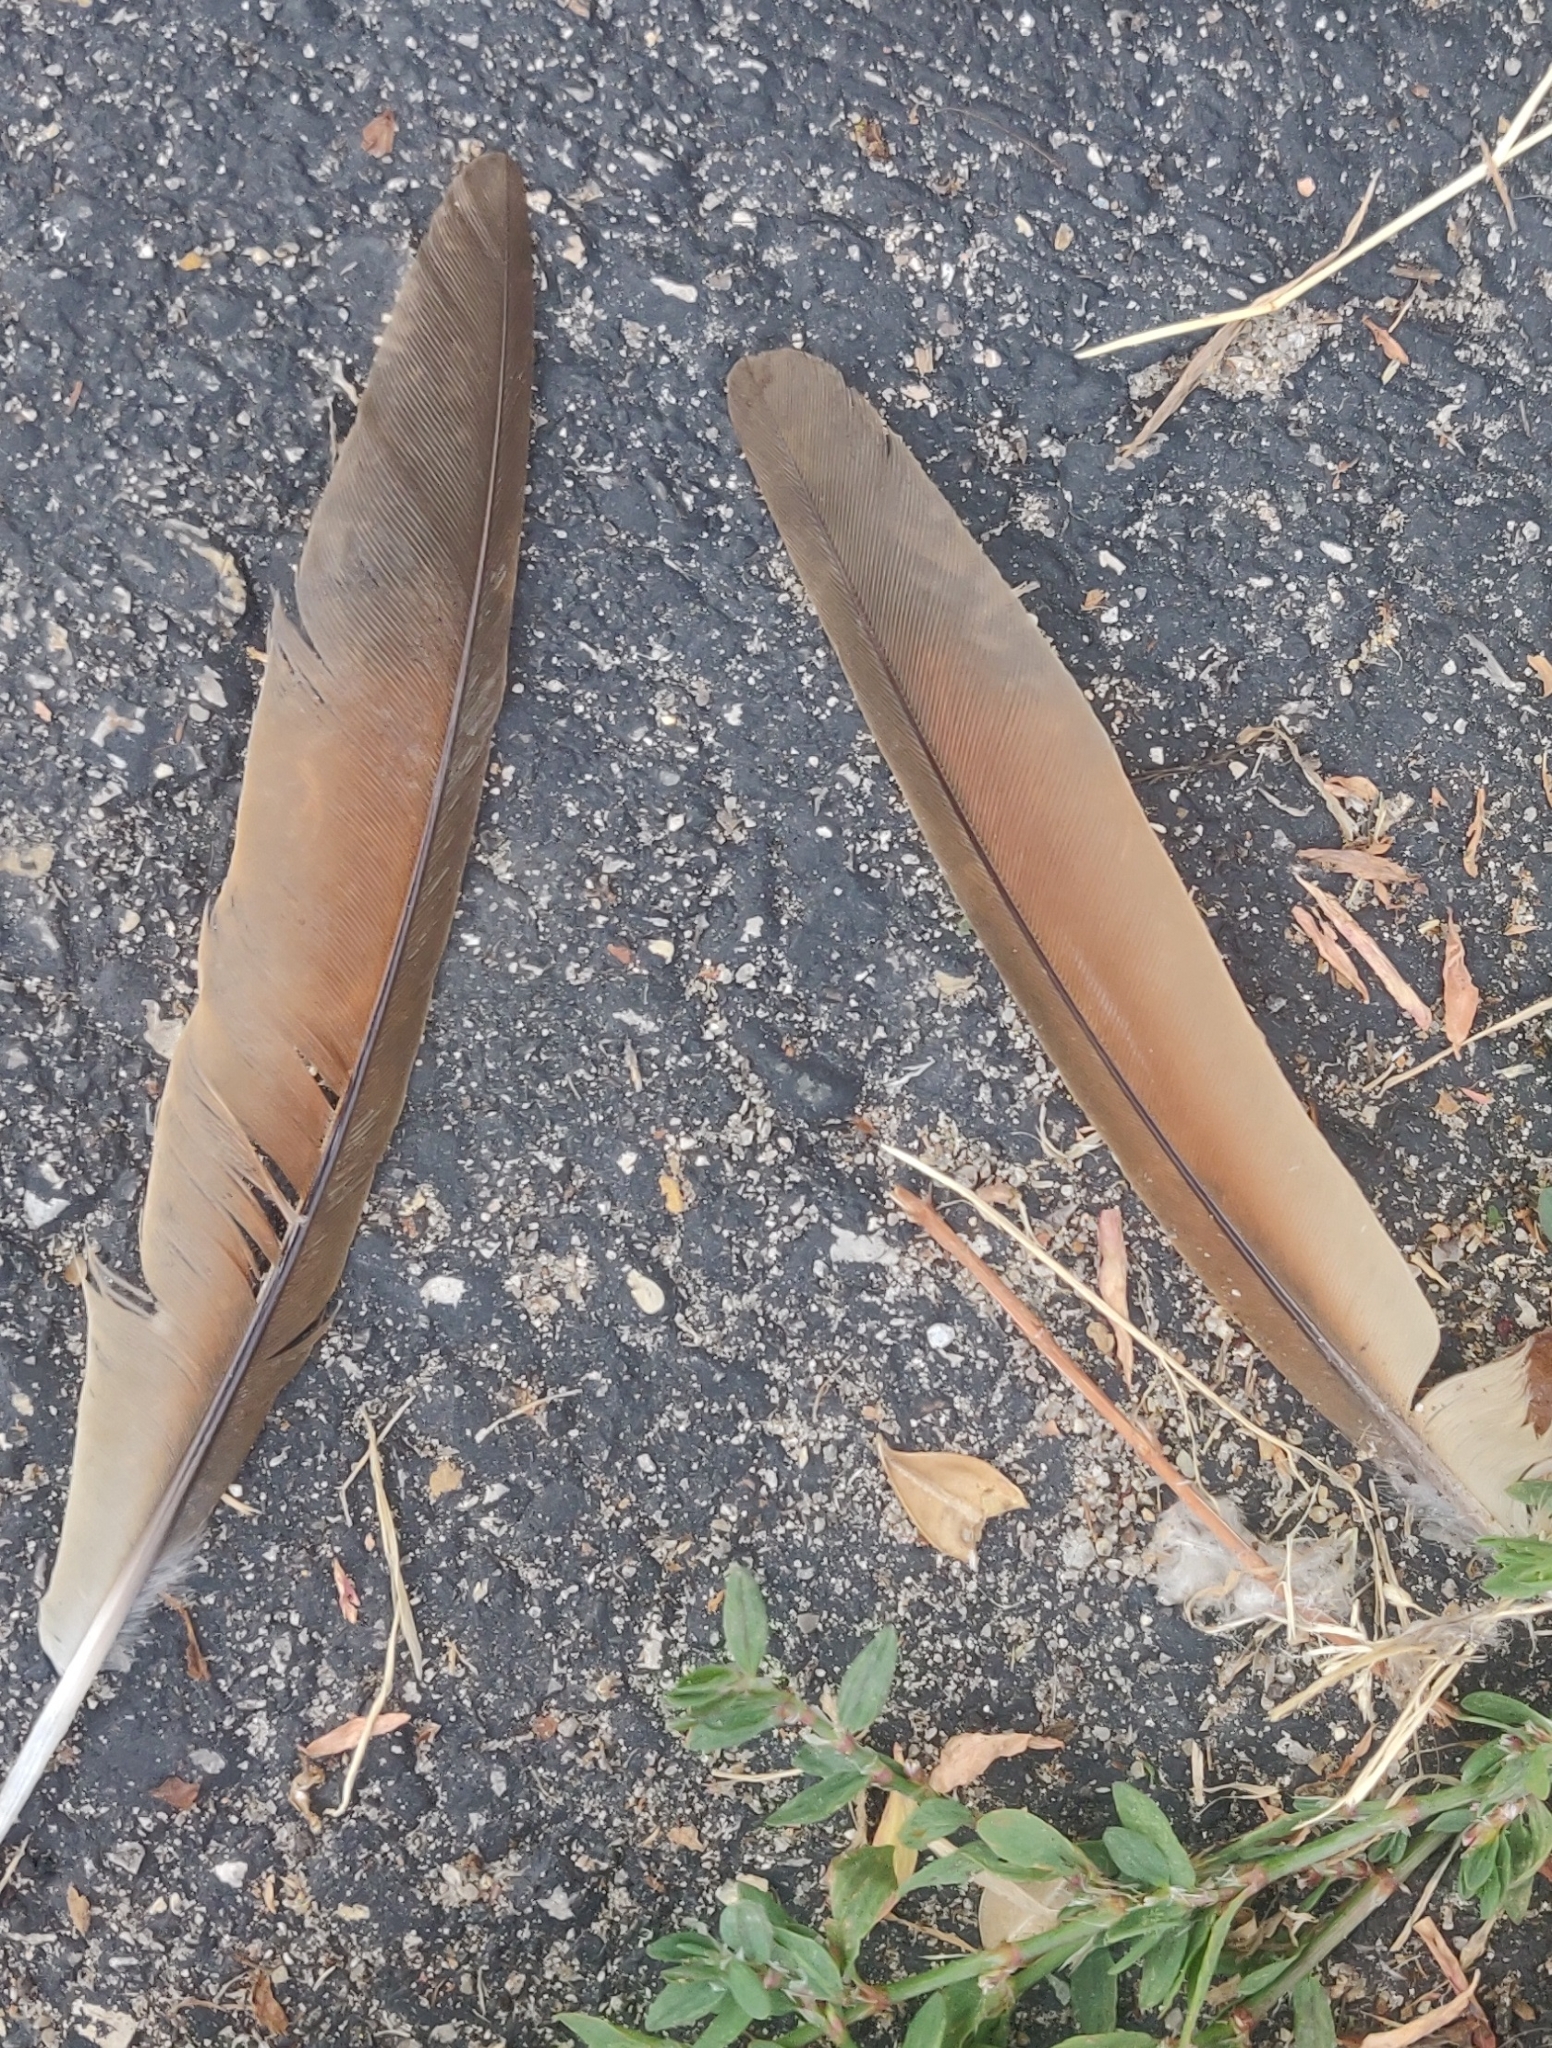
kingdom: Animalia
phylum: Chordata
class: Aves
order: Cuculiformes
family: Cuculidae
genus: Coccyzus
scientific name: Coccyzus americanus
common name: Yellow-billed cuckoo
